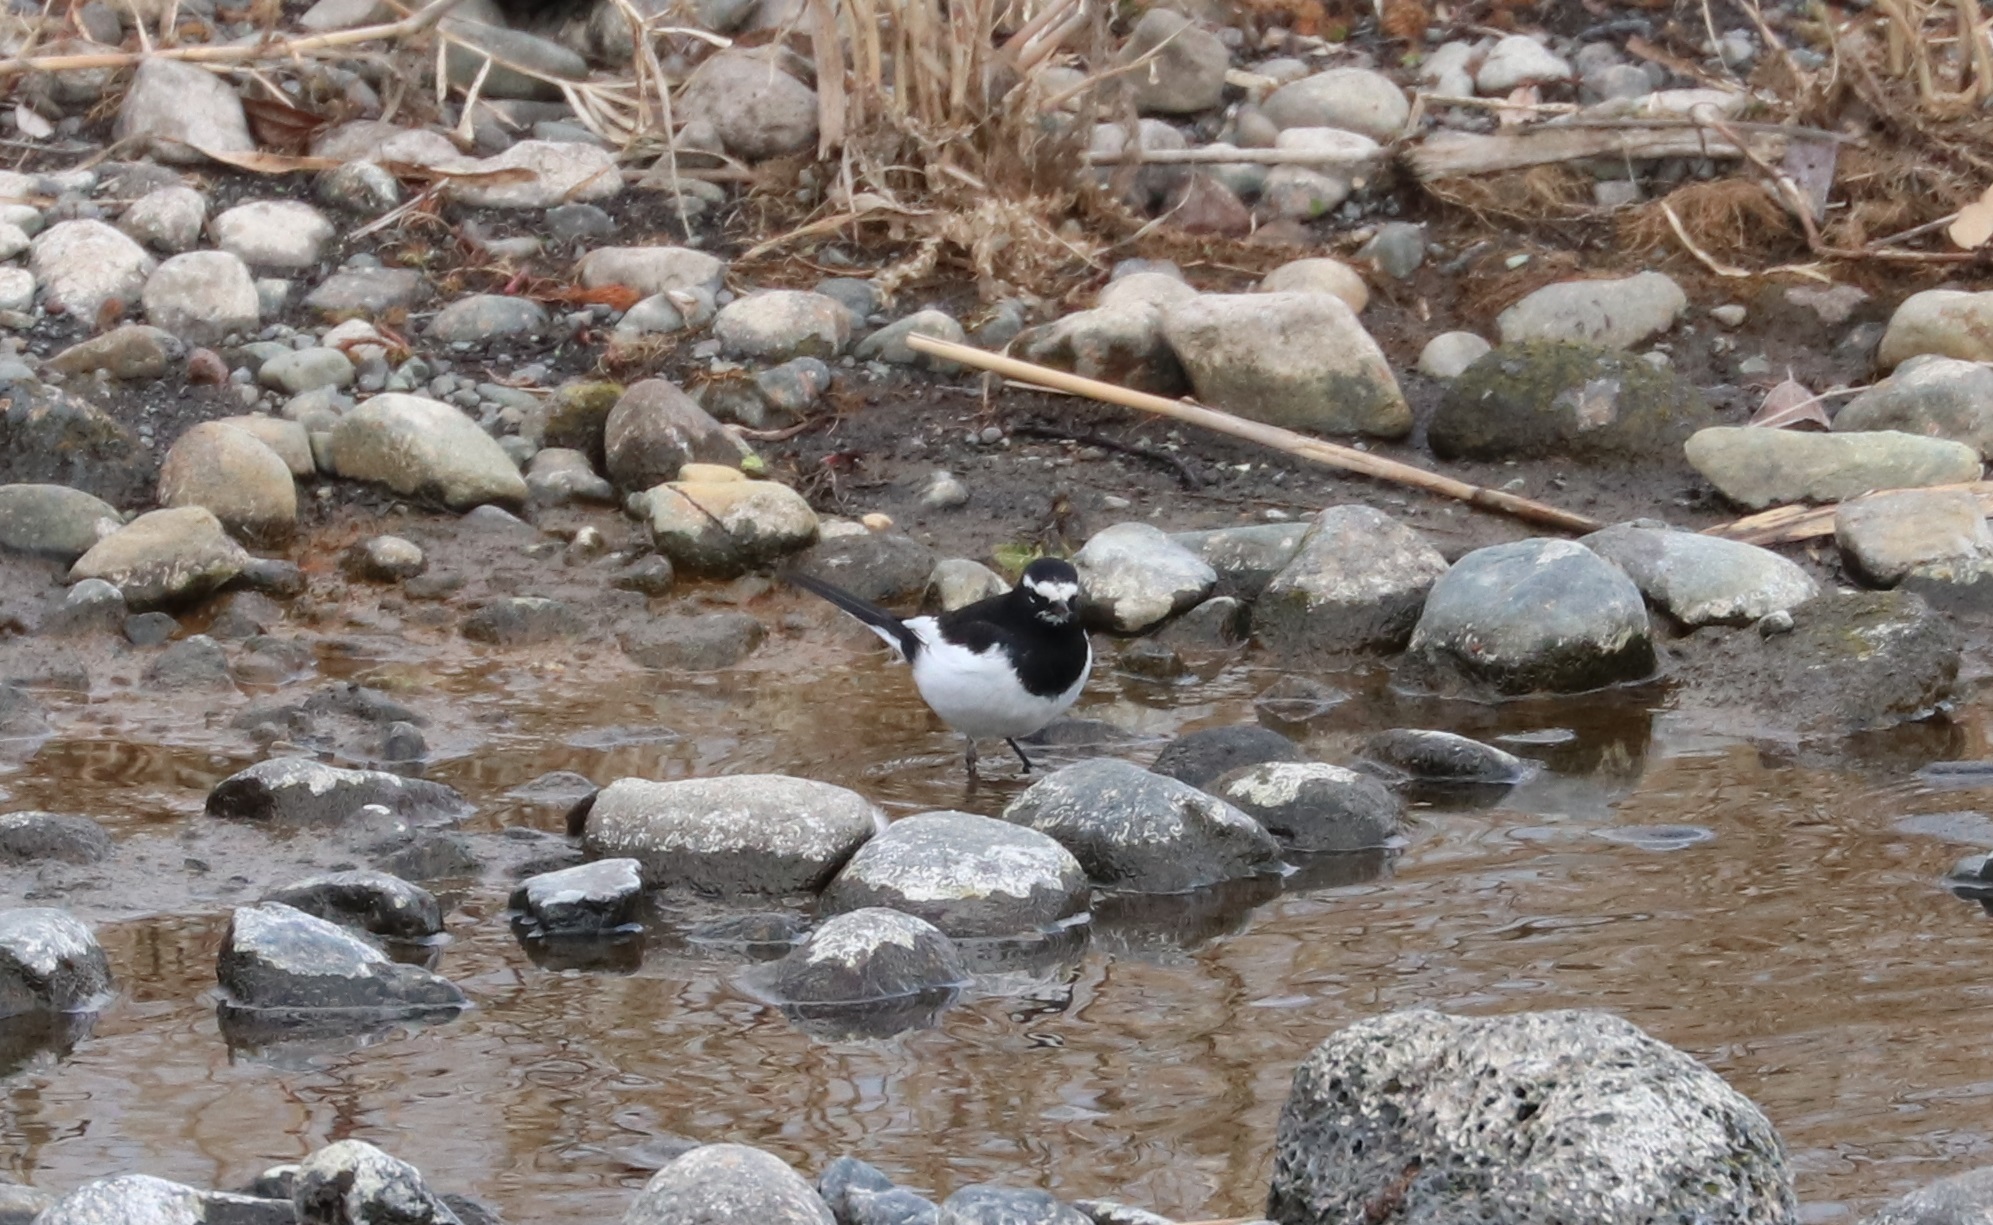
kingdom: Animalia
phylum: Chordata
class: Aves
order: Passeriformes
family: Motacillidae
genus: Motacilla
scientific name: Motacilla grandis
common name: Japanese wagtail
